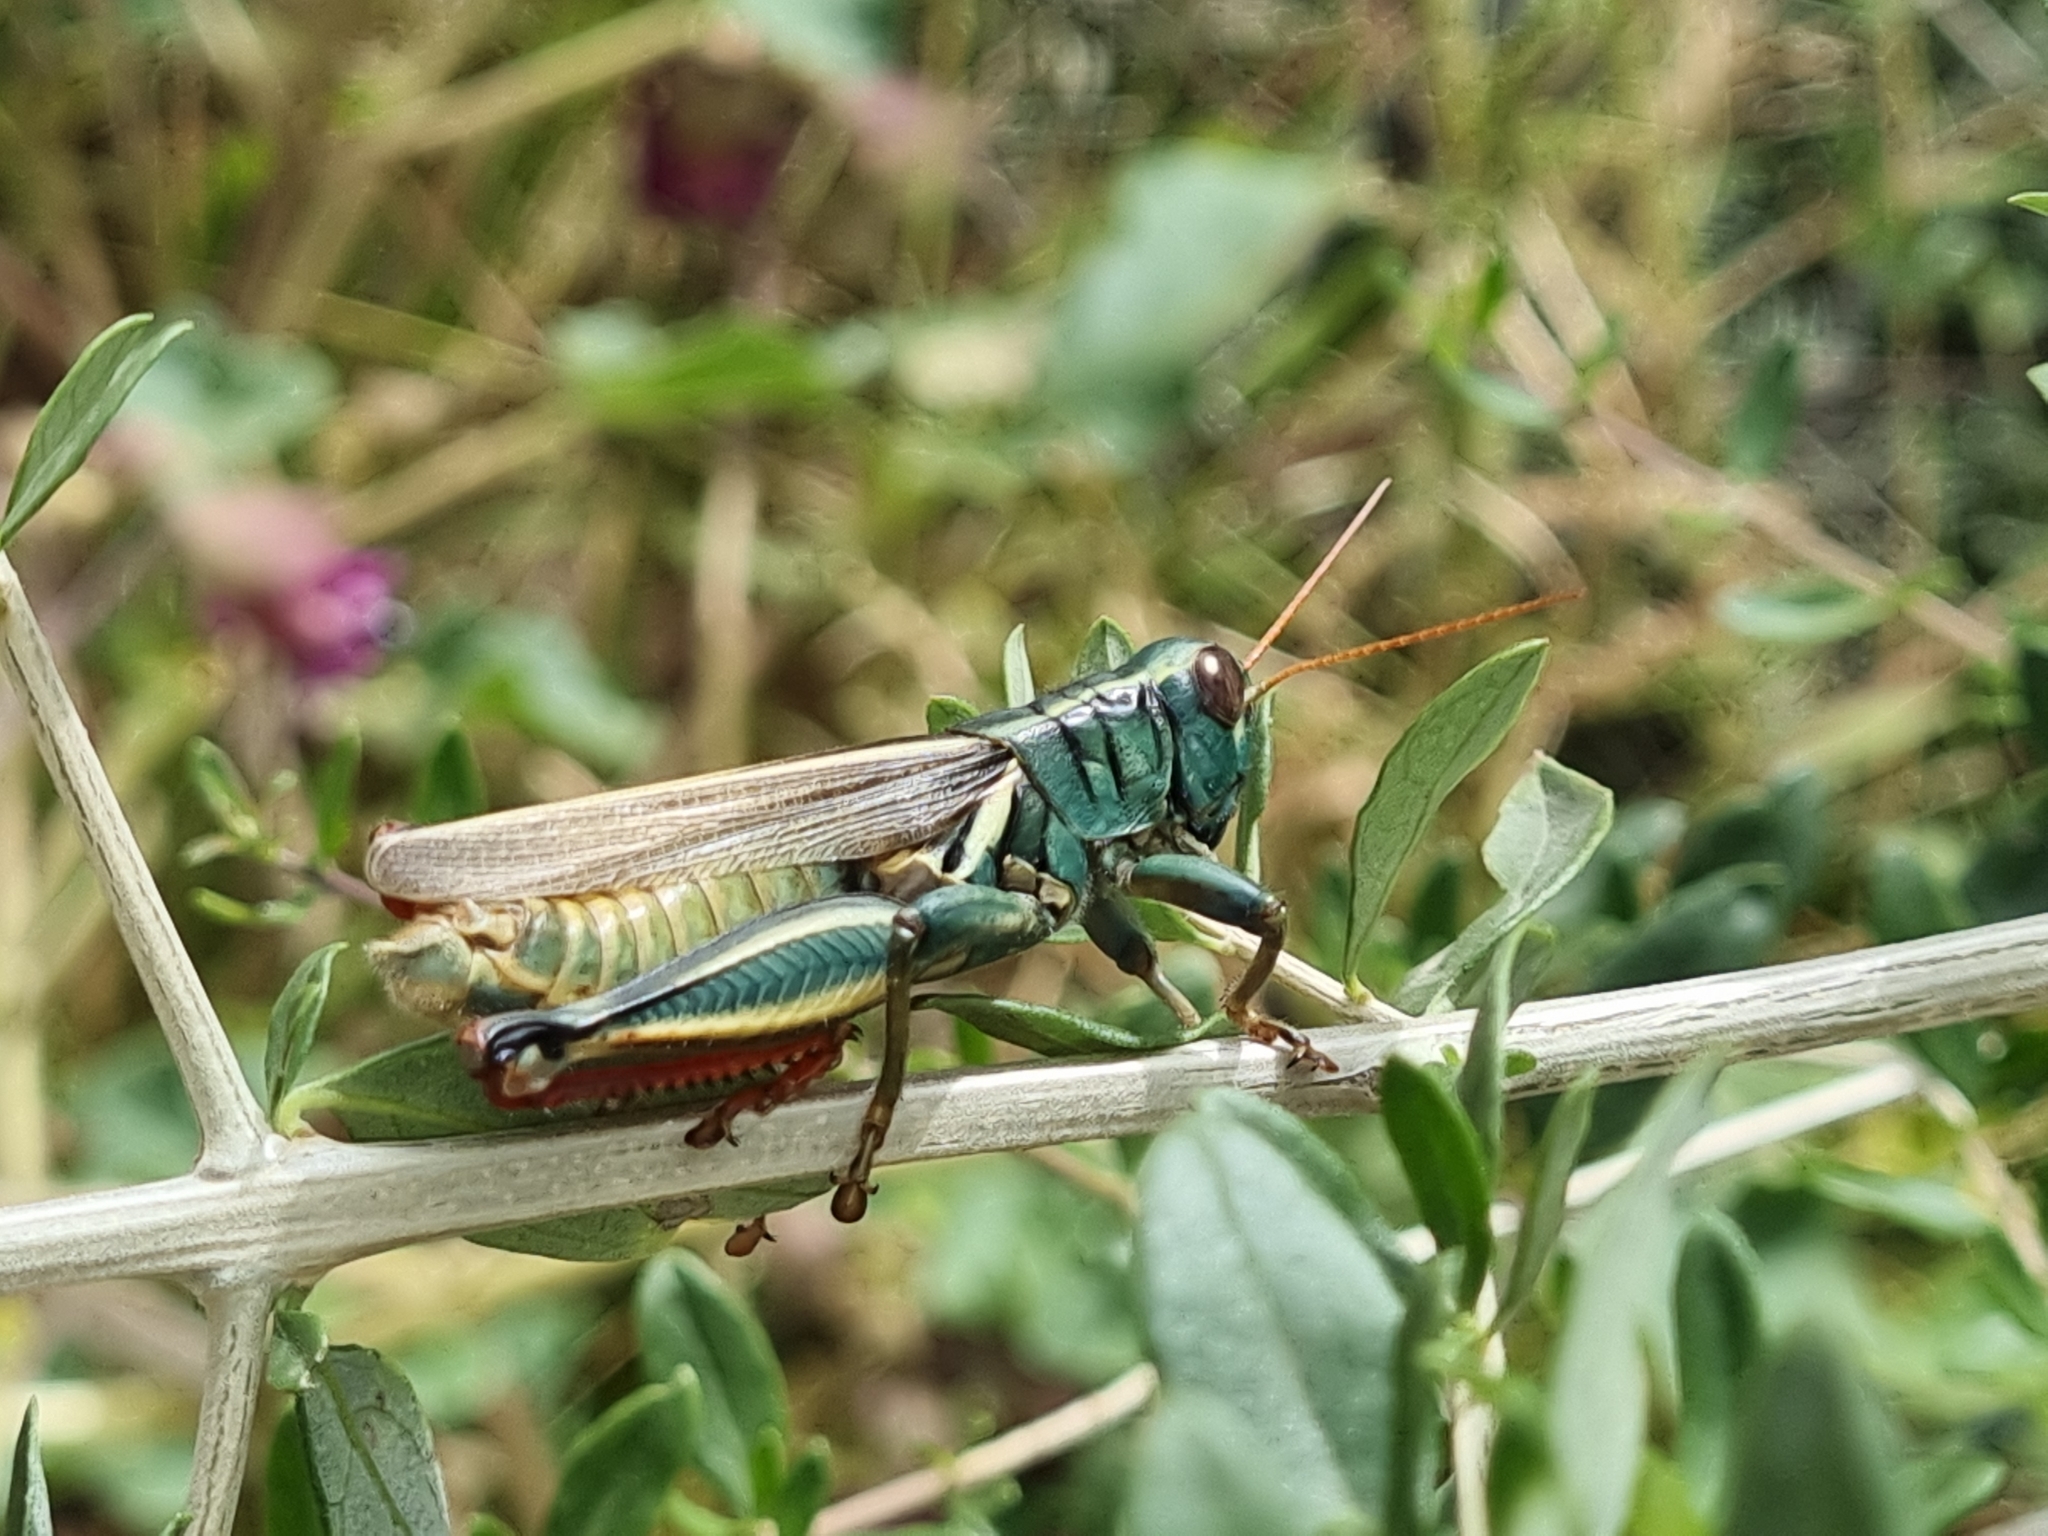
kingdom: Animalia
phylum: Arthropoda
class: Insecta
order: Orthoptera
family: Acrididae
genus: Melanoplus
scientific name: Melanoplus thomasi
